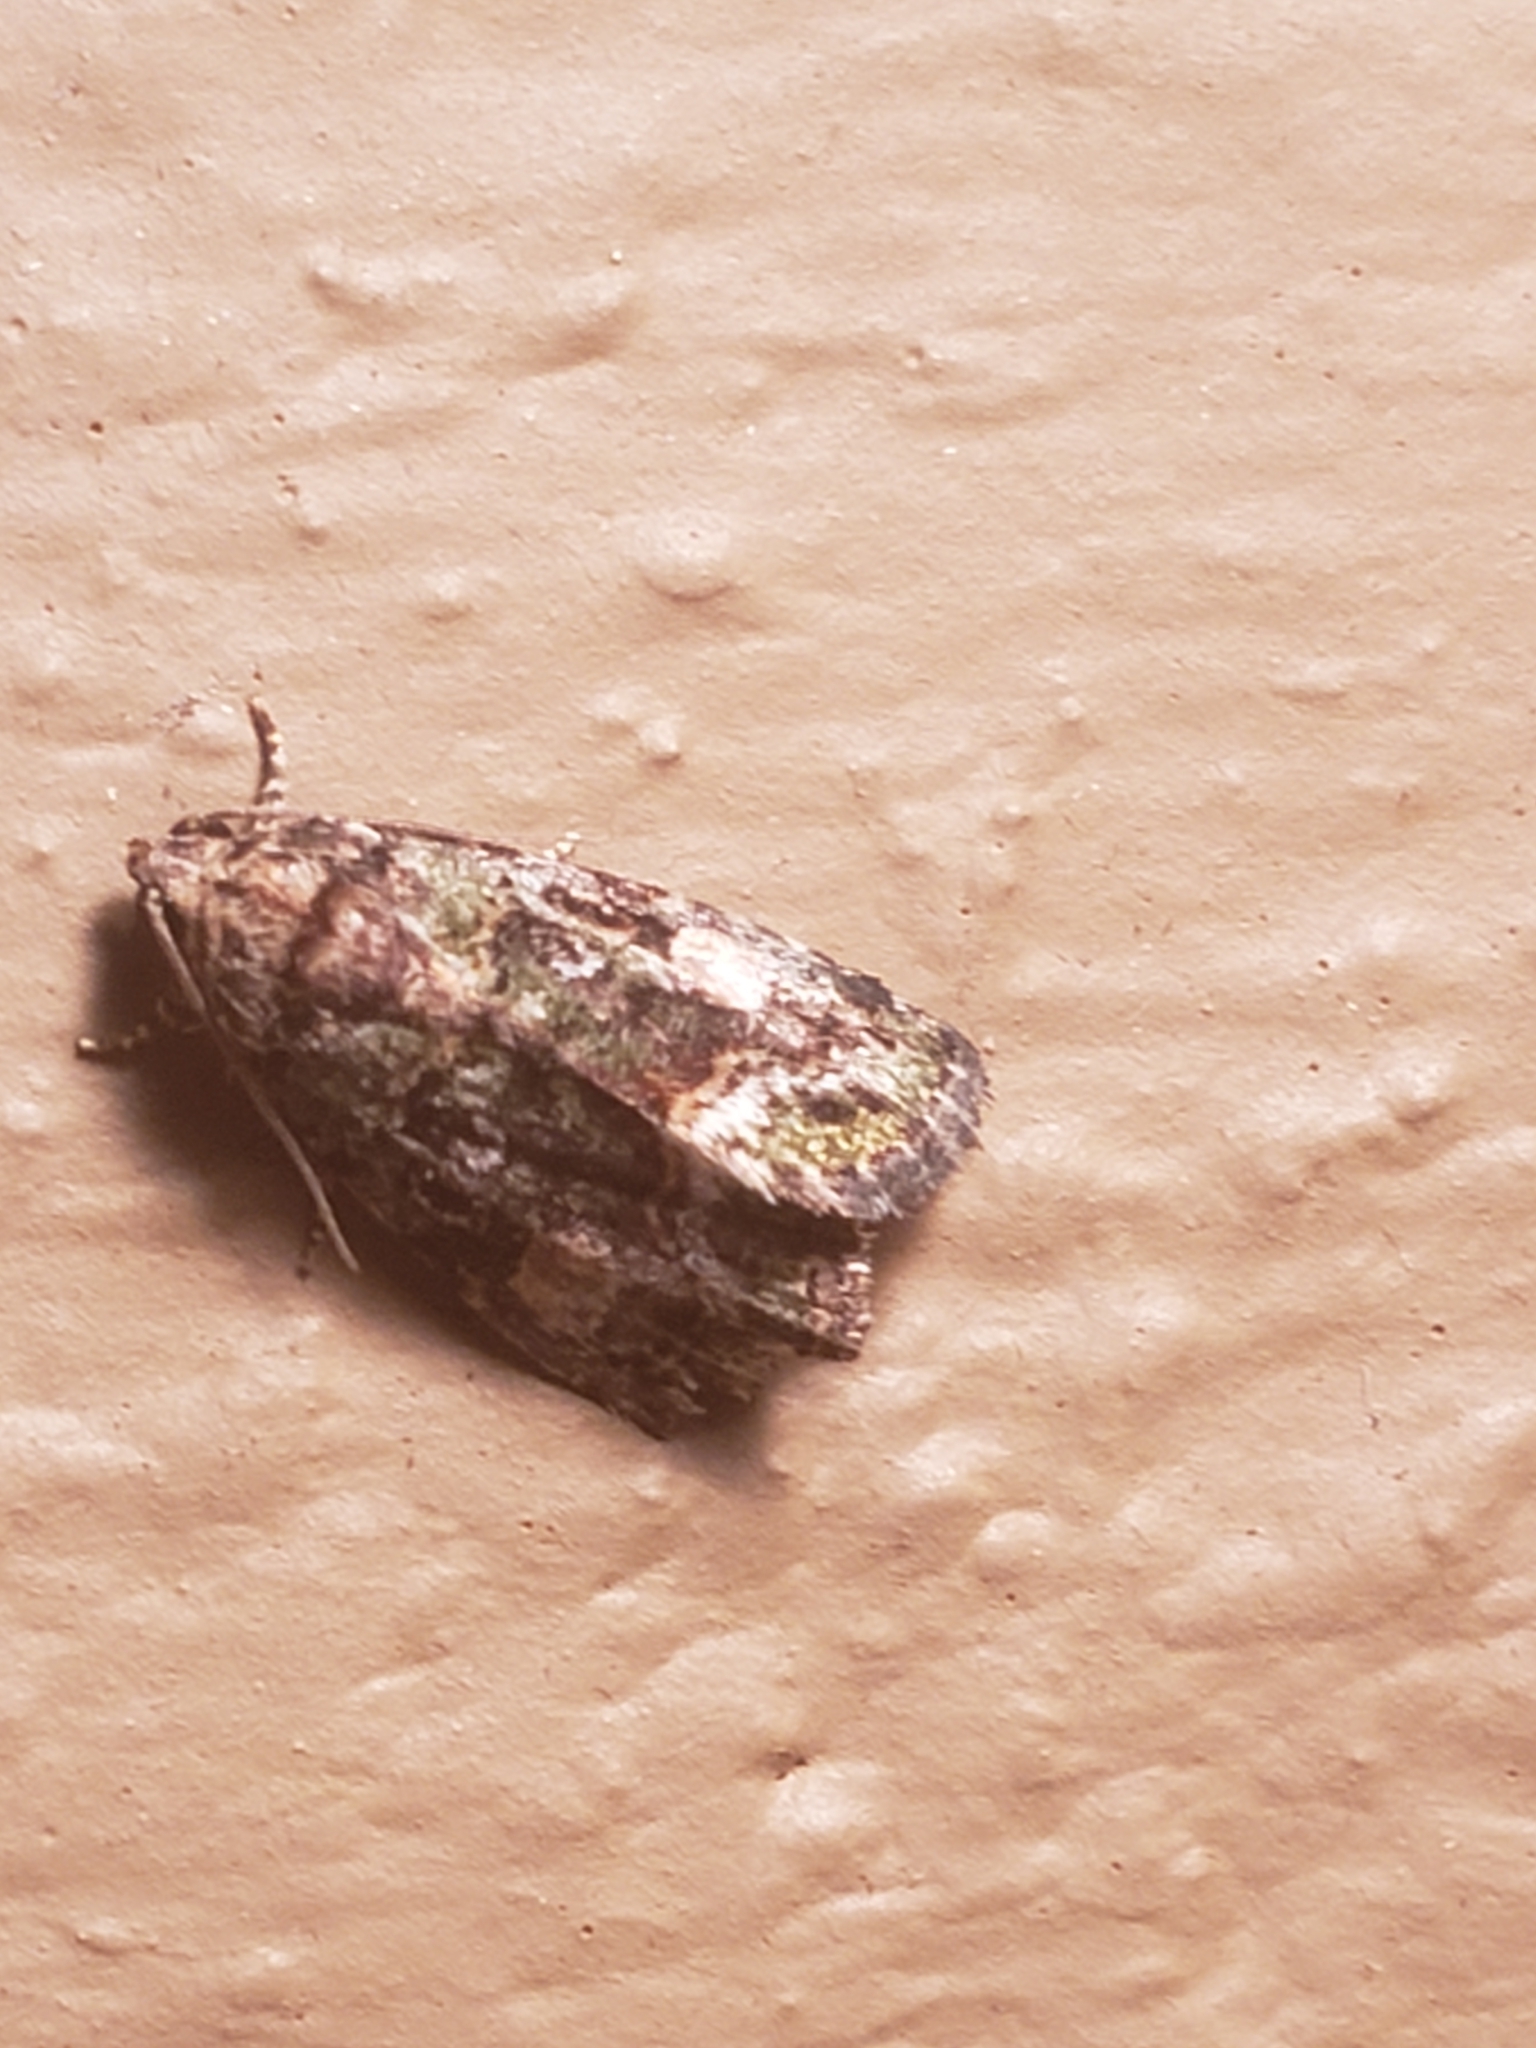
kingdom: Animalia
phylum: Arthropoda
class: Insecta
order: Lepidoptera
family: Noctuidae
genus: Lithacodia
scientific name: Lithacodia musta
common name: Small mossy glyph
